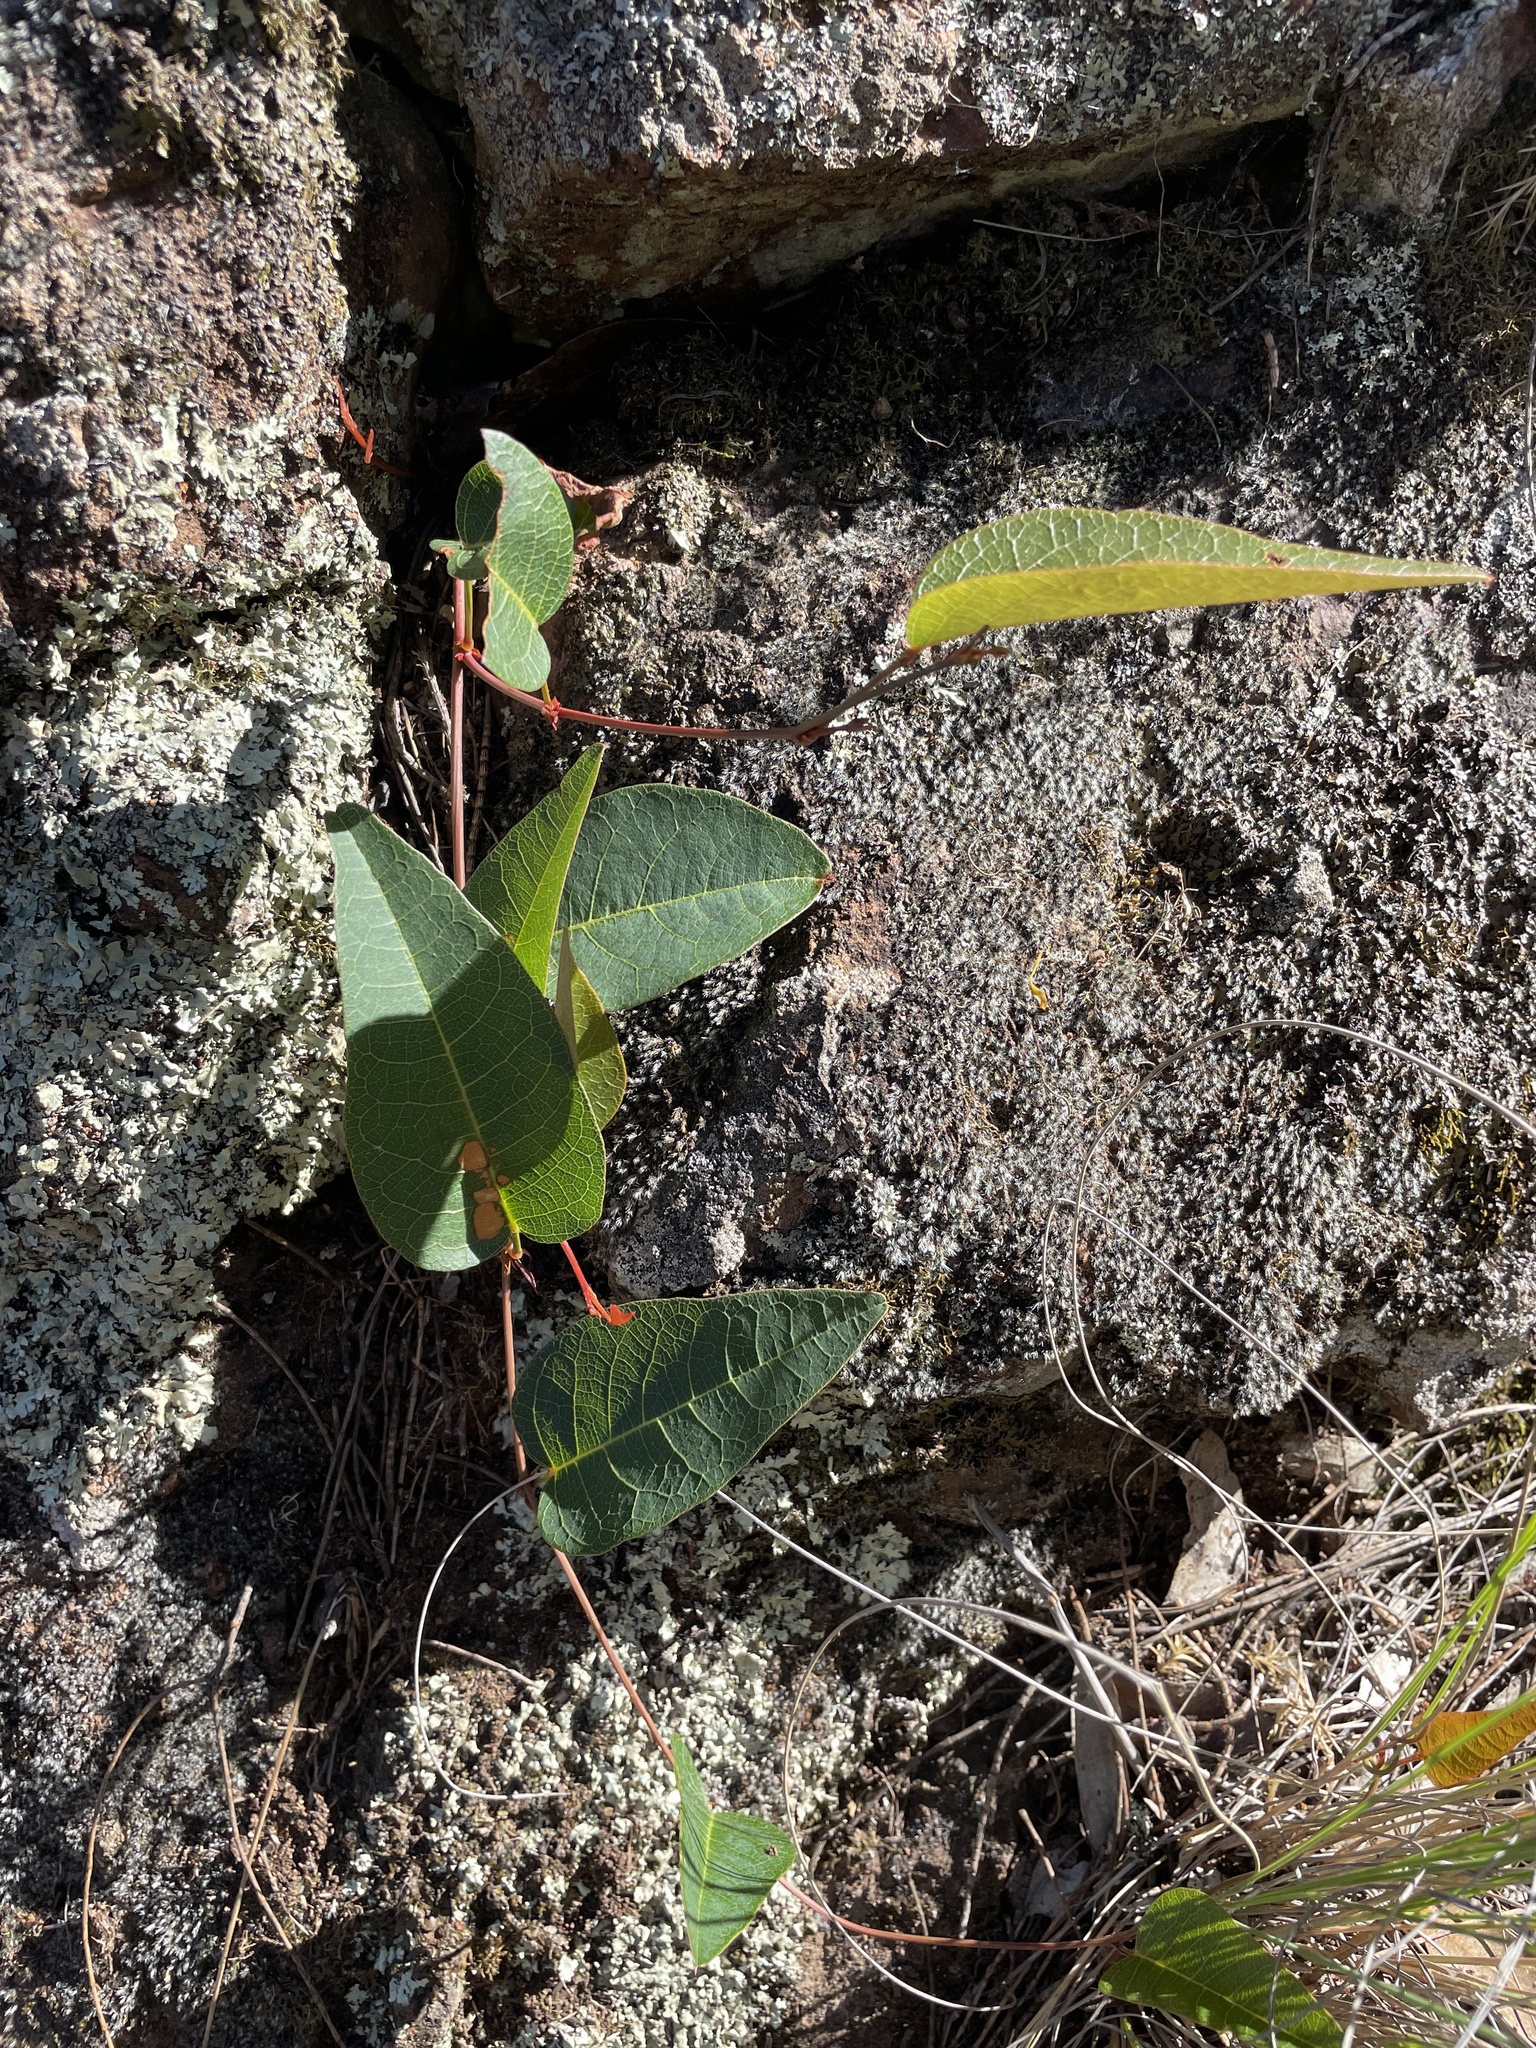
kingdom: Plantae
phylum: Tracheophyta
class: Magnoliopsida
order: Fabales
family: Fabaceae
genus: Hardenbergia
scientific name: Hardenbergia violacea
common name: Coral-pea
